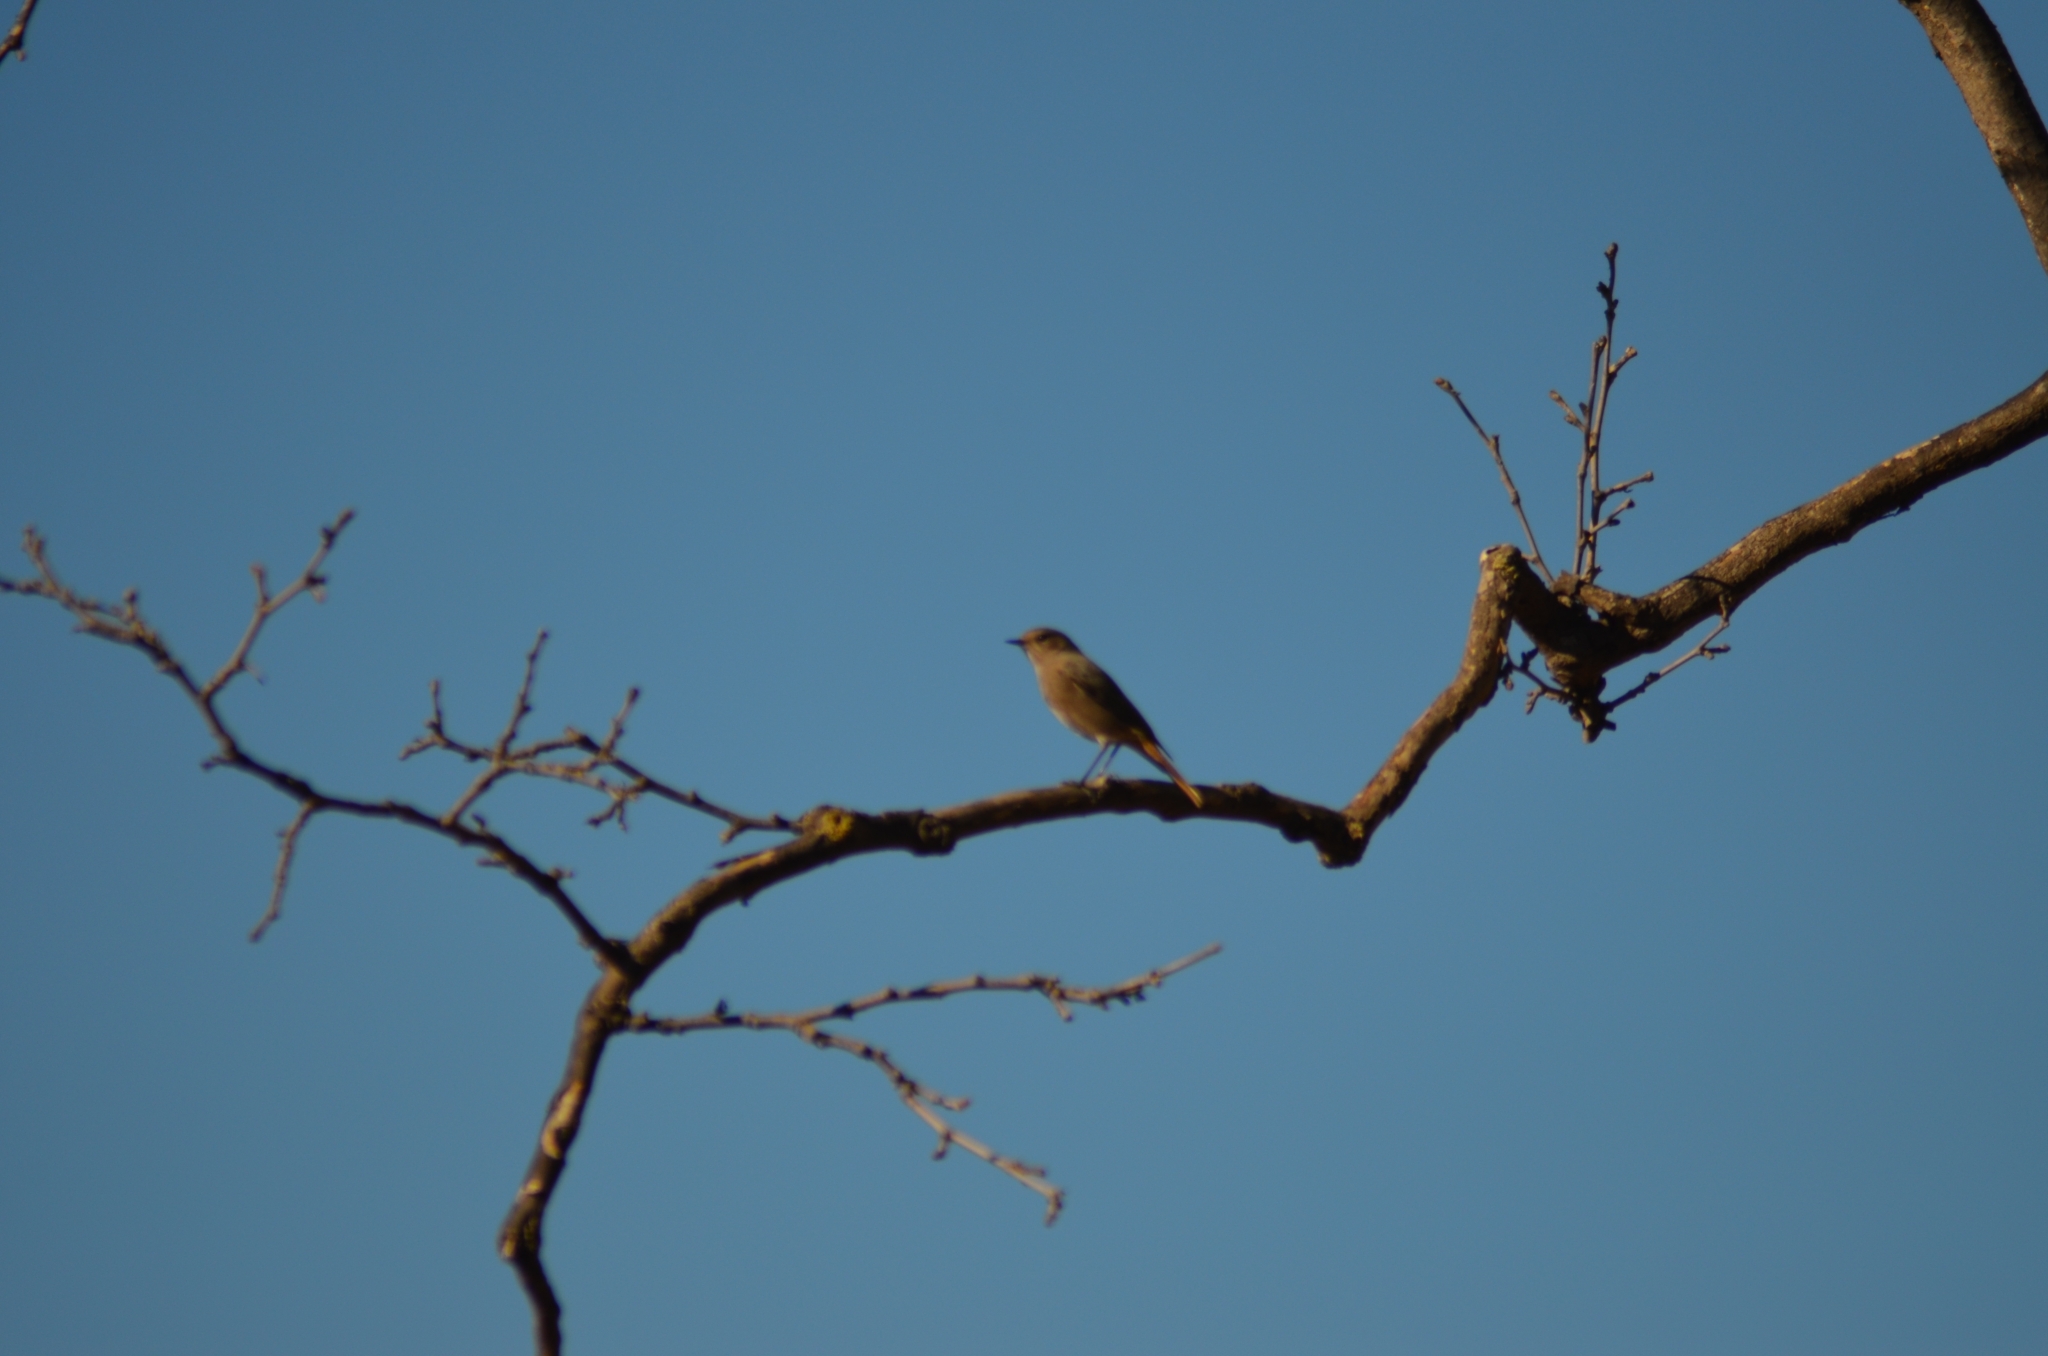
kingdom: Animalia
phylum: Chordata
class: Aves
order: Passeriformes
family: Muscicapidae
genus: Phoenicurus
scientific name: Phoenicurus ochruros
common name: Black redstart
